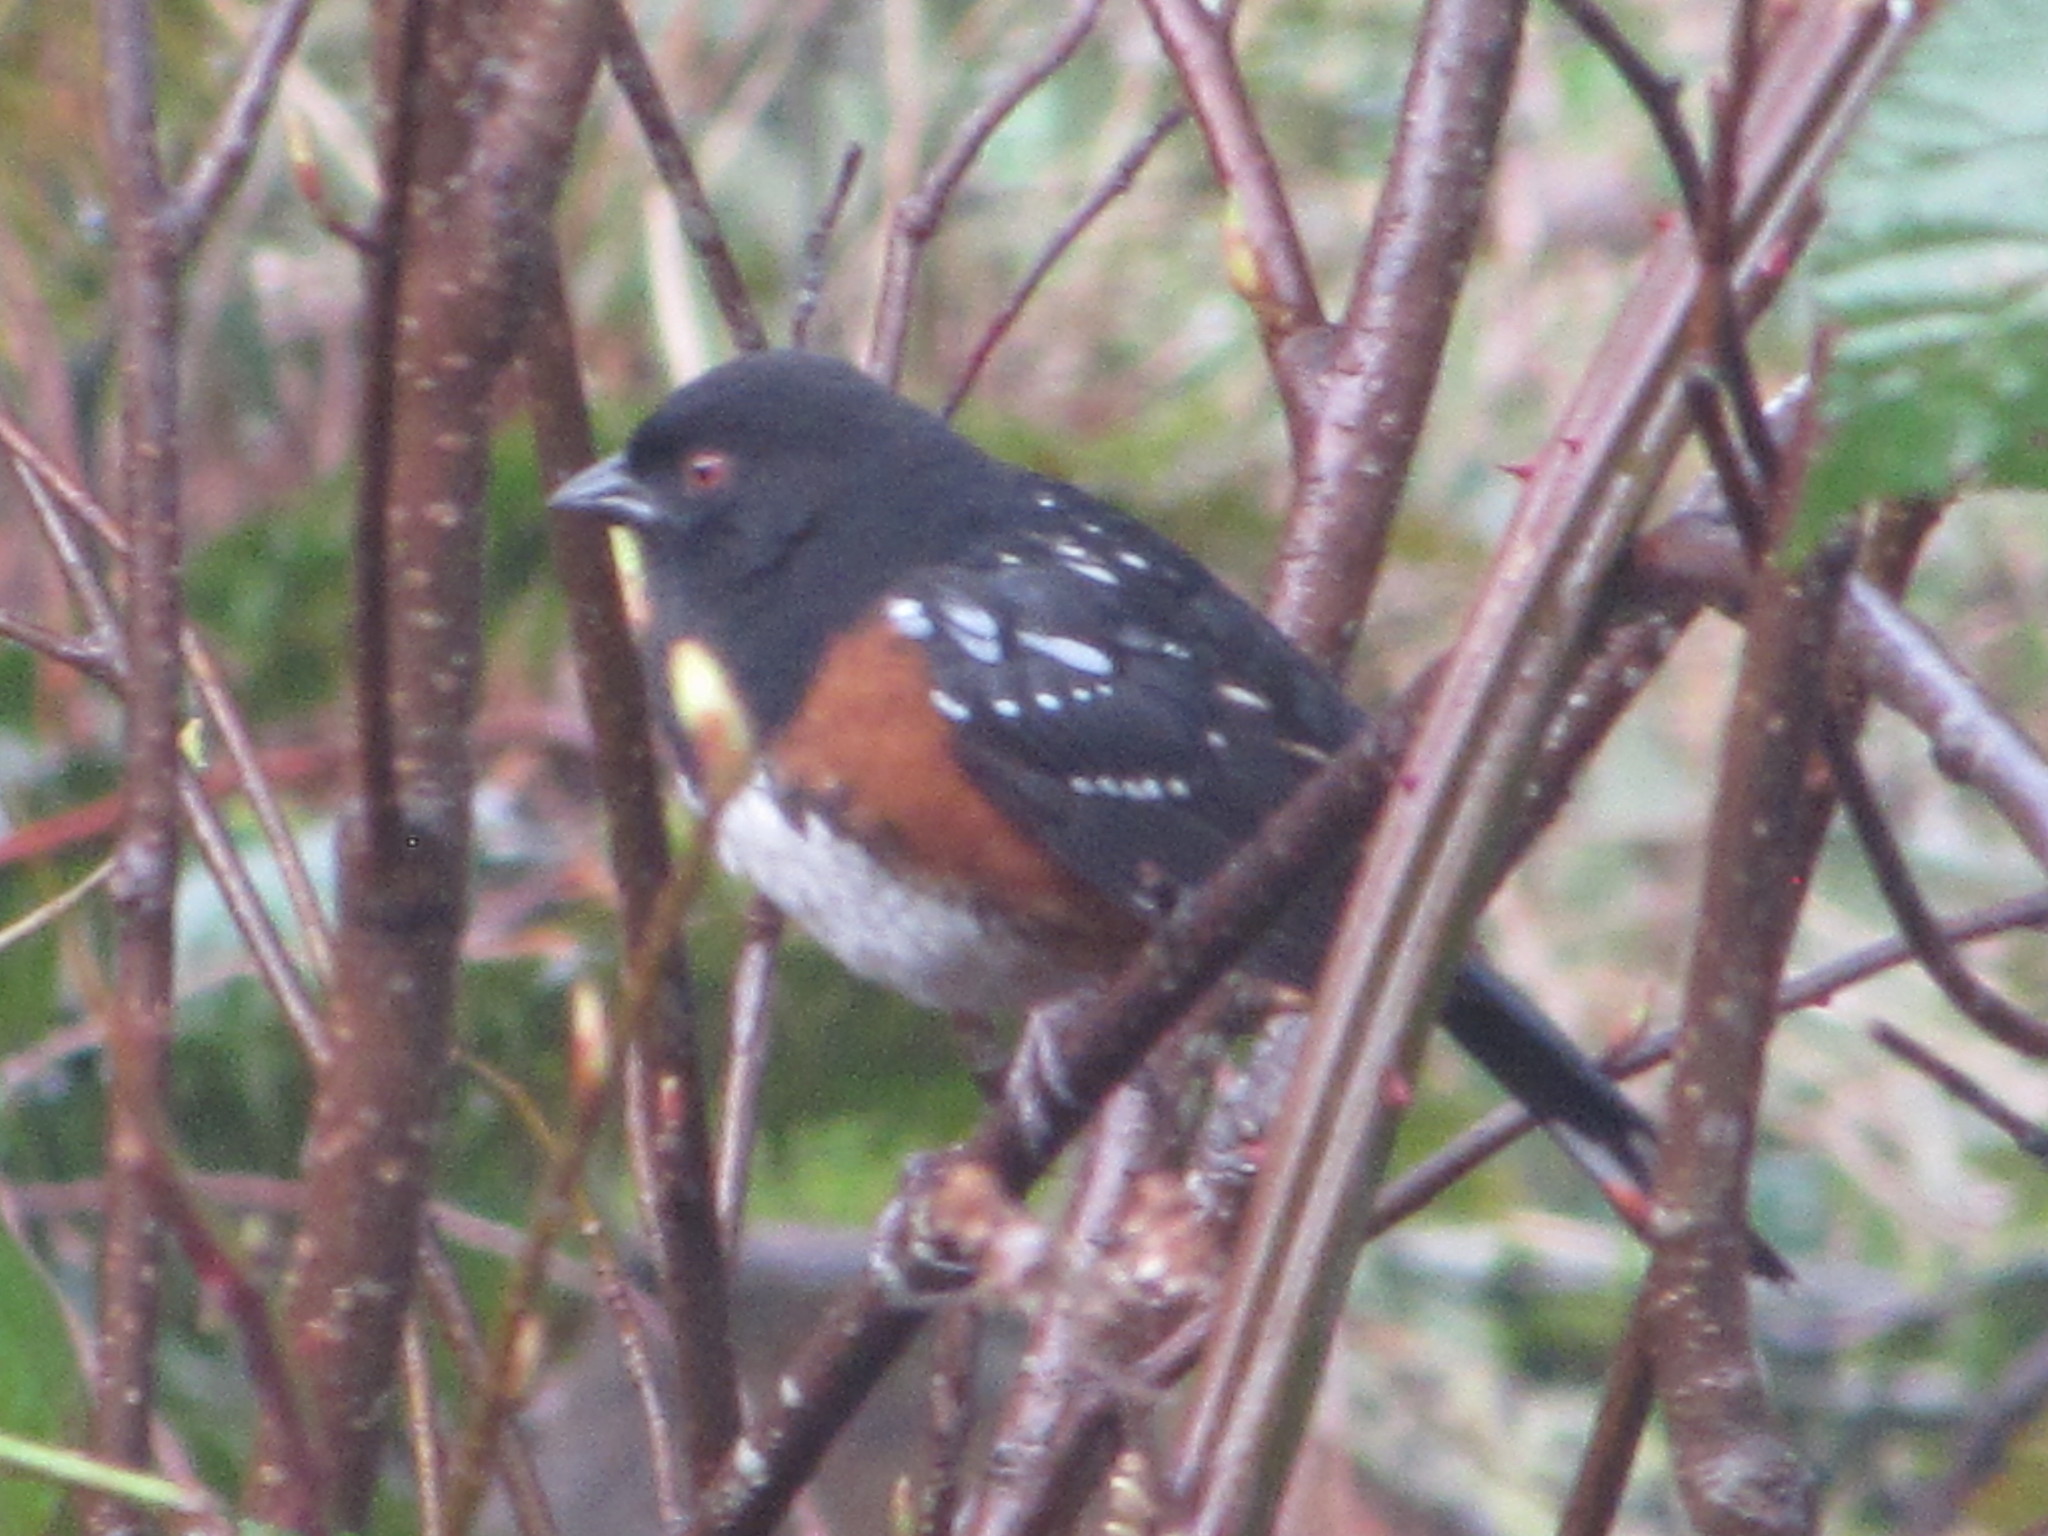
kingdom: Animalia
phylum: Chordata
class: Aves
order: Passeriformes
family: Passerellidae
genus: Pipilo
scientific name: Pipilo maculatus
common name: Spotted towhee
